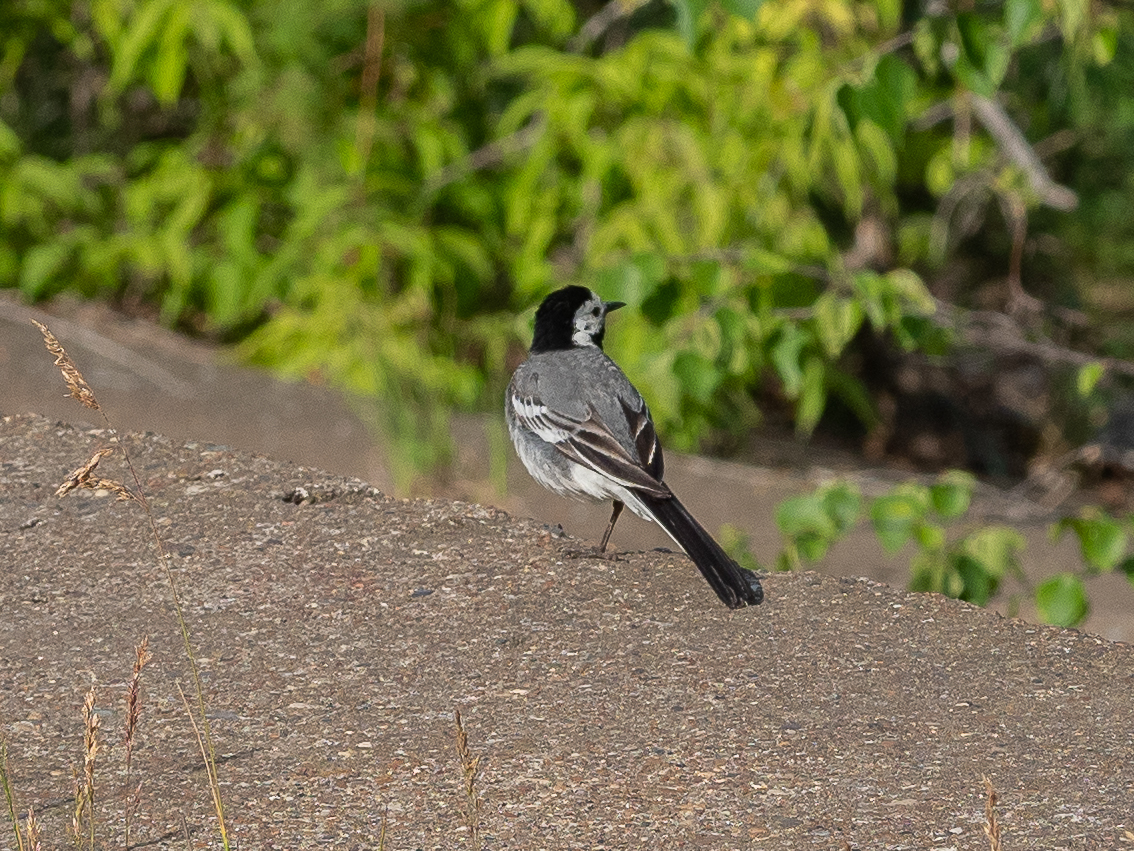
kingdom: Animalia
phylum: Chordata
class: Aves
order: Passeriformes
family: Motacillidae
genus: Motacilla
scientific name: Motacilla alba
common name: White wagtail
